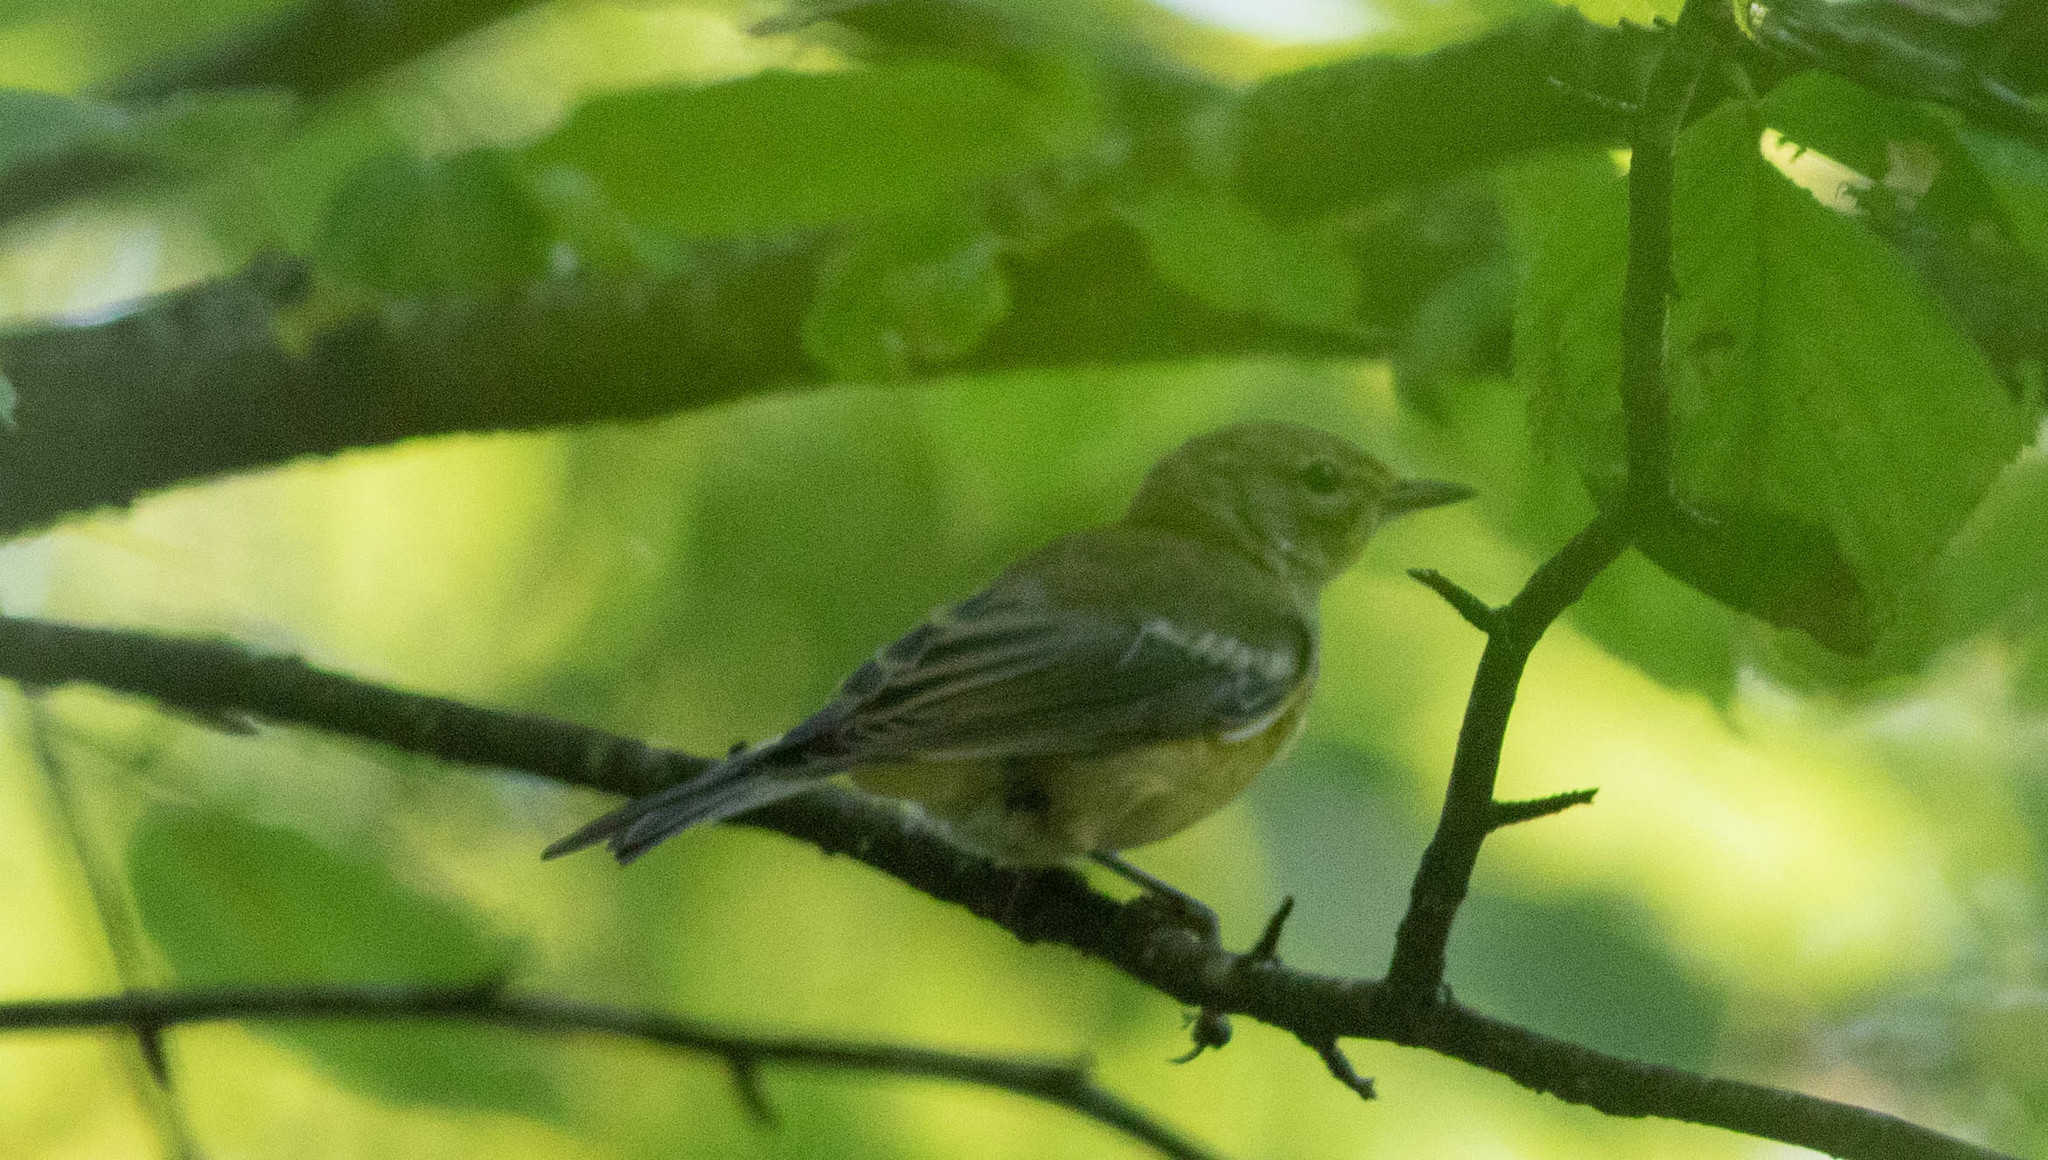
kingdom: Animalia
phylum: Chordata
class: Aves
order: Passeriformes
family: Parulidae
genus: Setophaga
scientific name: Setophaga pinus
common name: Pine warbler
